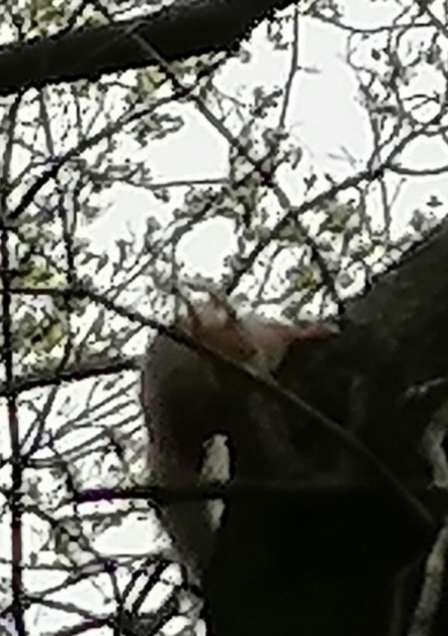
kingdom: Animalia
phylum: Chordata
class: Mammalia
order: Rodentia
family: Sciuridae
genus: Sciurus
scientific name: Sciurus vulgaris
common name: Eurasian red squirrel
